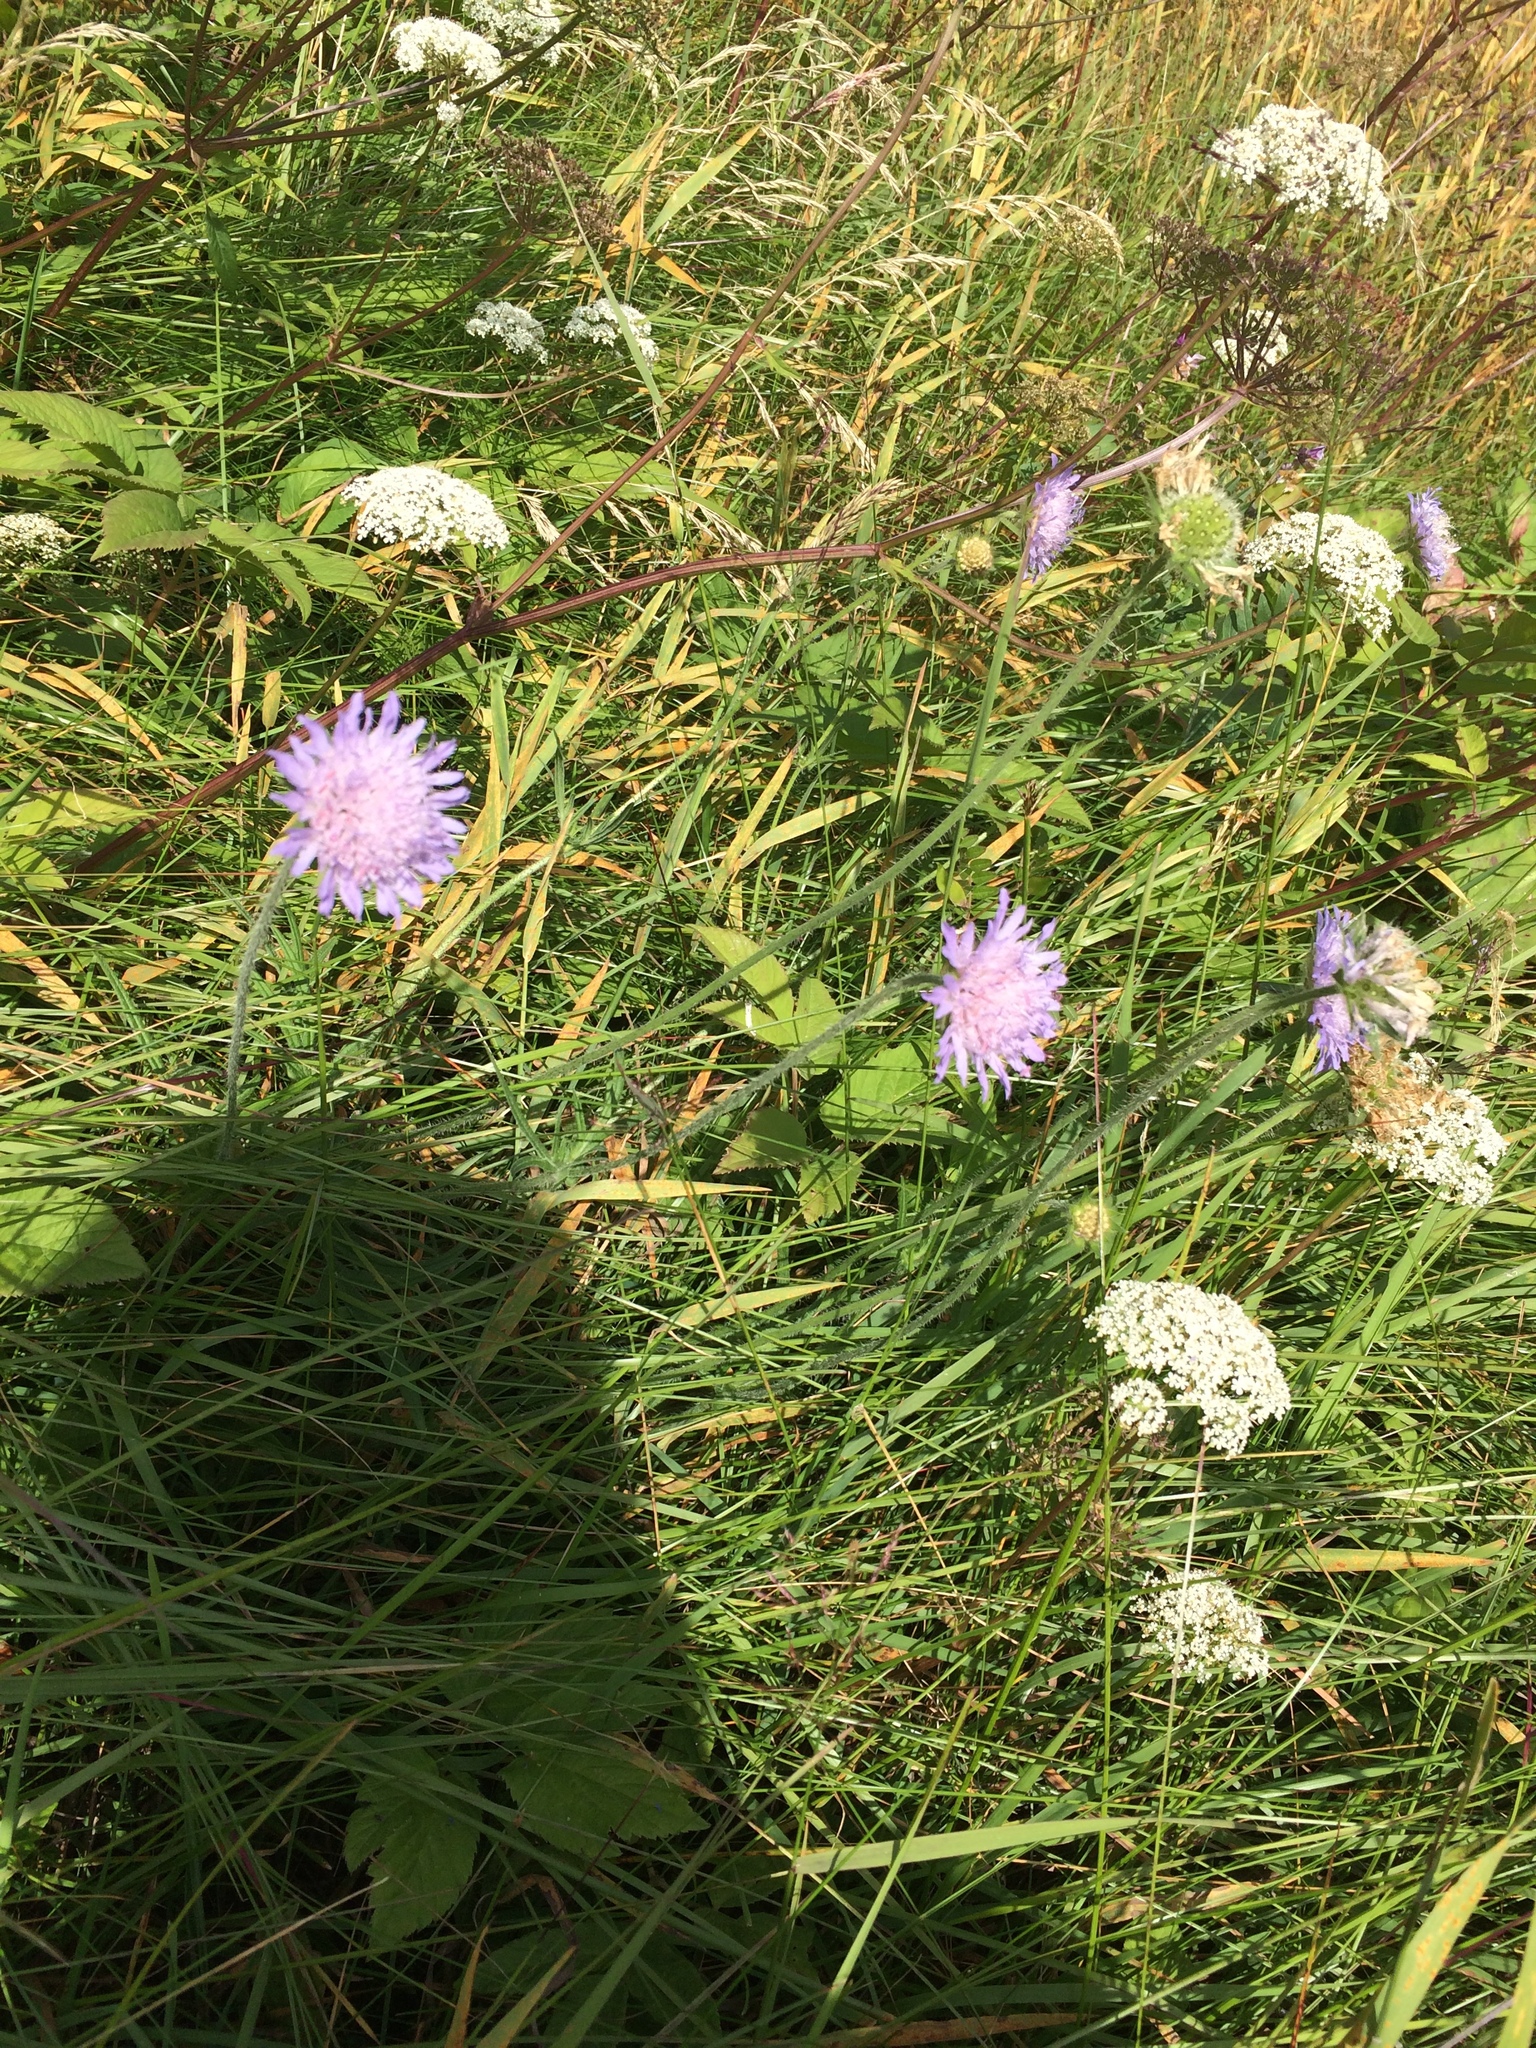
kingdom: Plantae
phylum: Tracheophyta
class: Magnoliopsida
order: Dipsacales
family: Caprifoliaceae
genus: Knautia
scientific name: Knautia arvensis
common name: Field scabiosa
